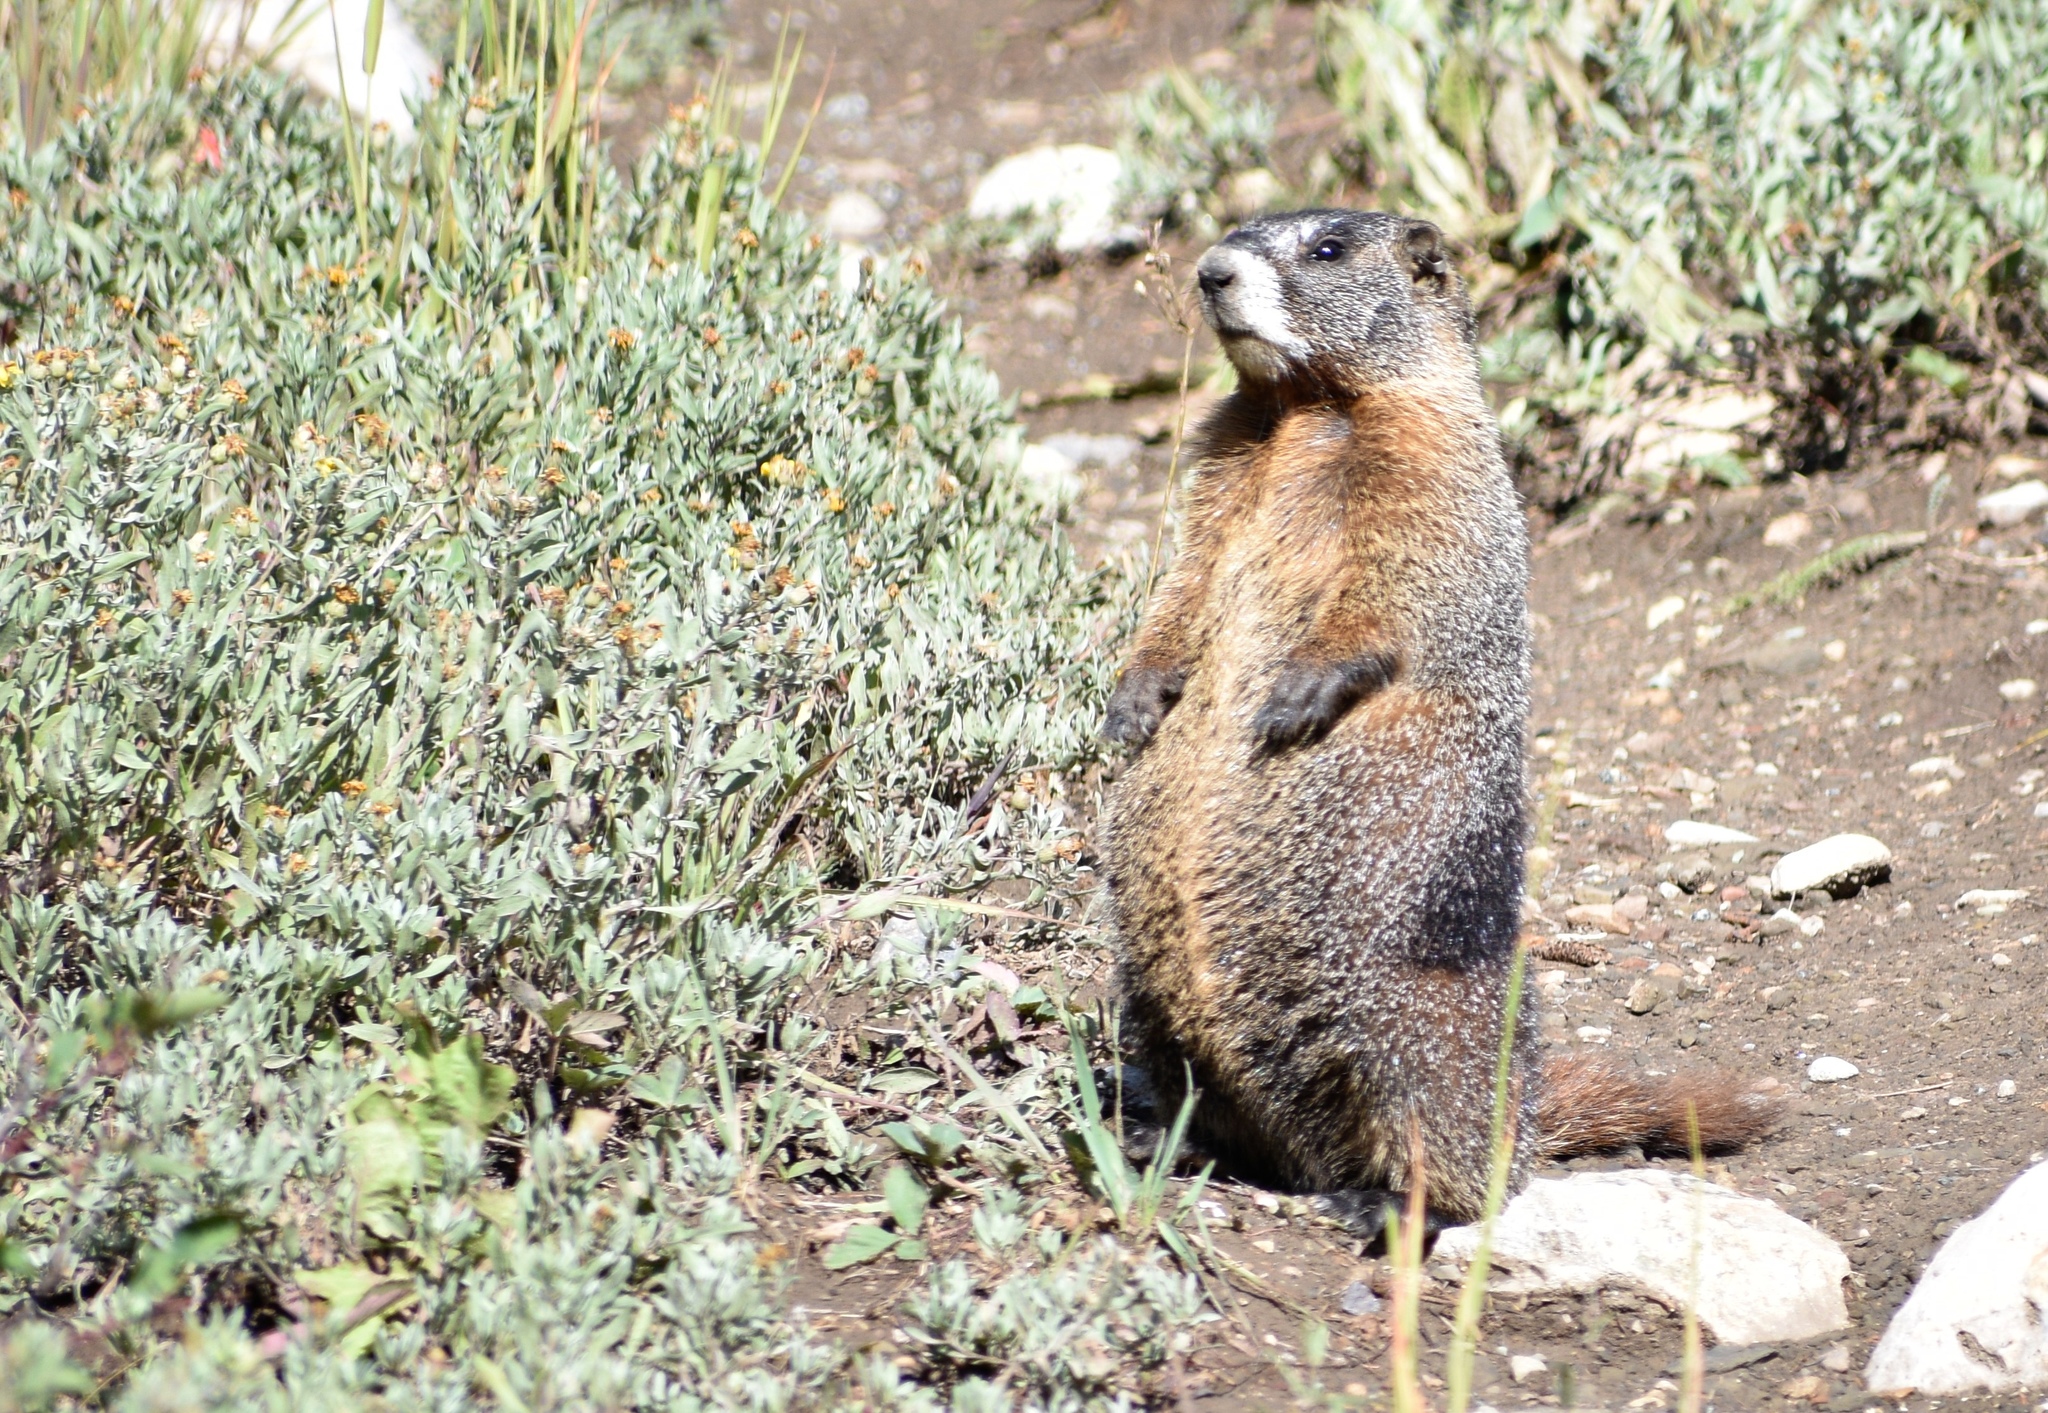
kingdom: Animalia
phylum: Chordata
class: Mammalia
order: Rodentia
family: Sciuridae
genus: Marmota
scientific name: Marmota flaviventris
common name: Yellow-bellied marmot
